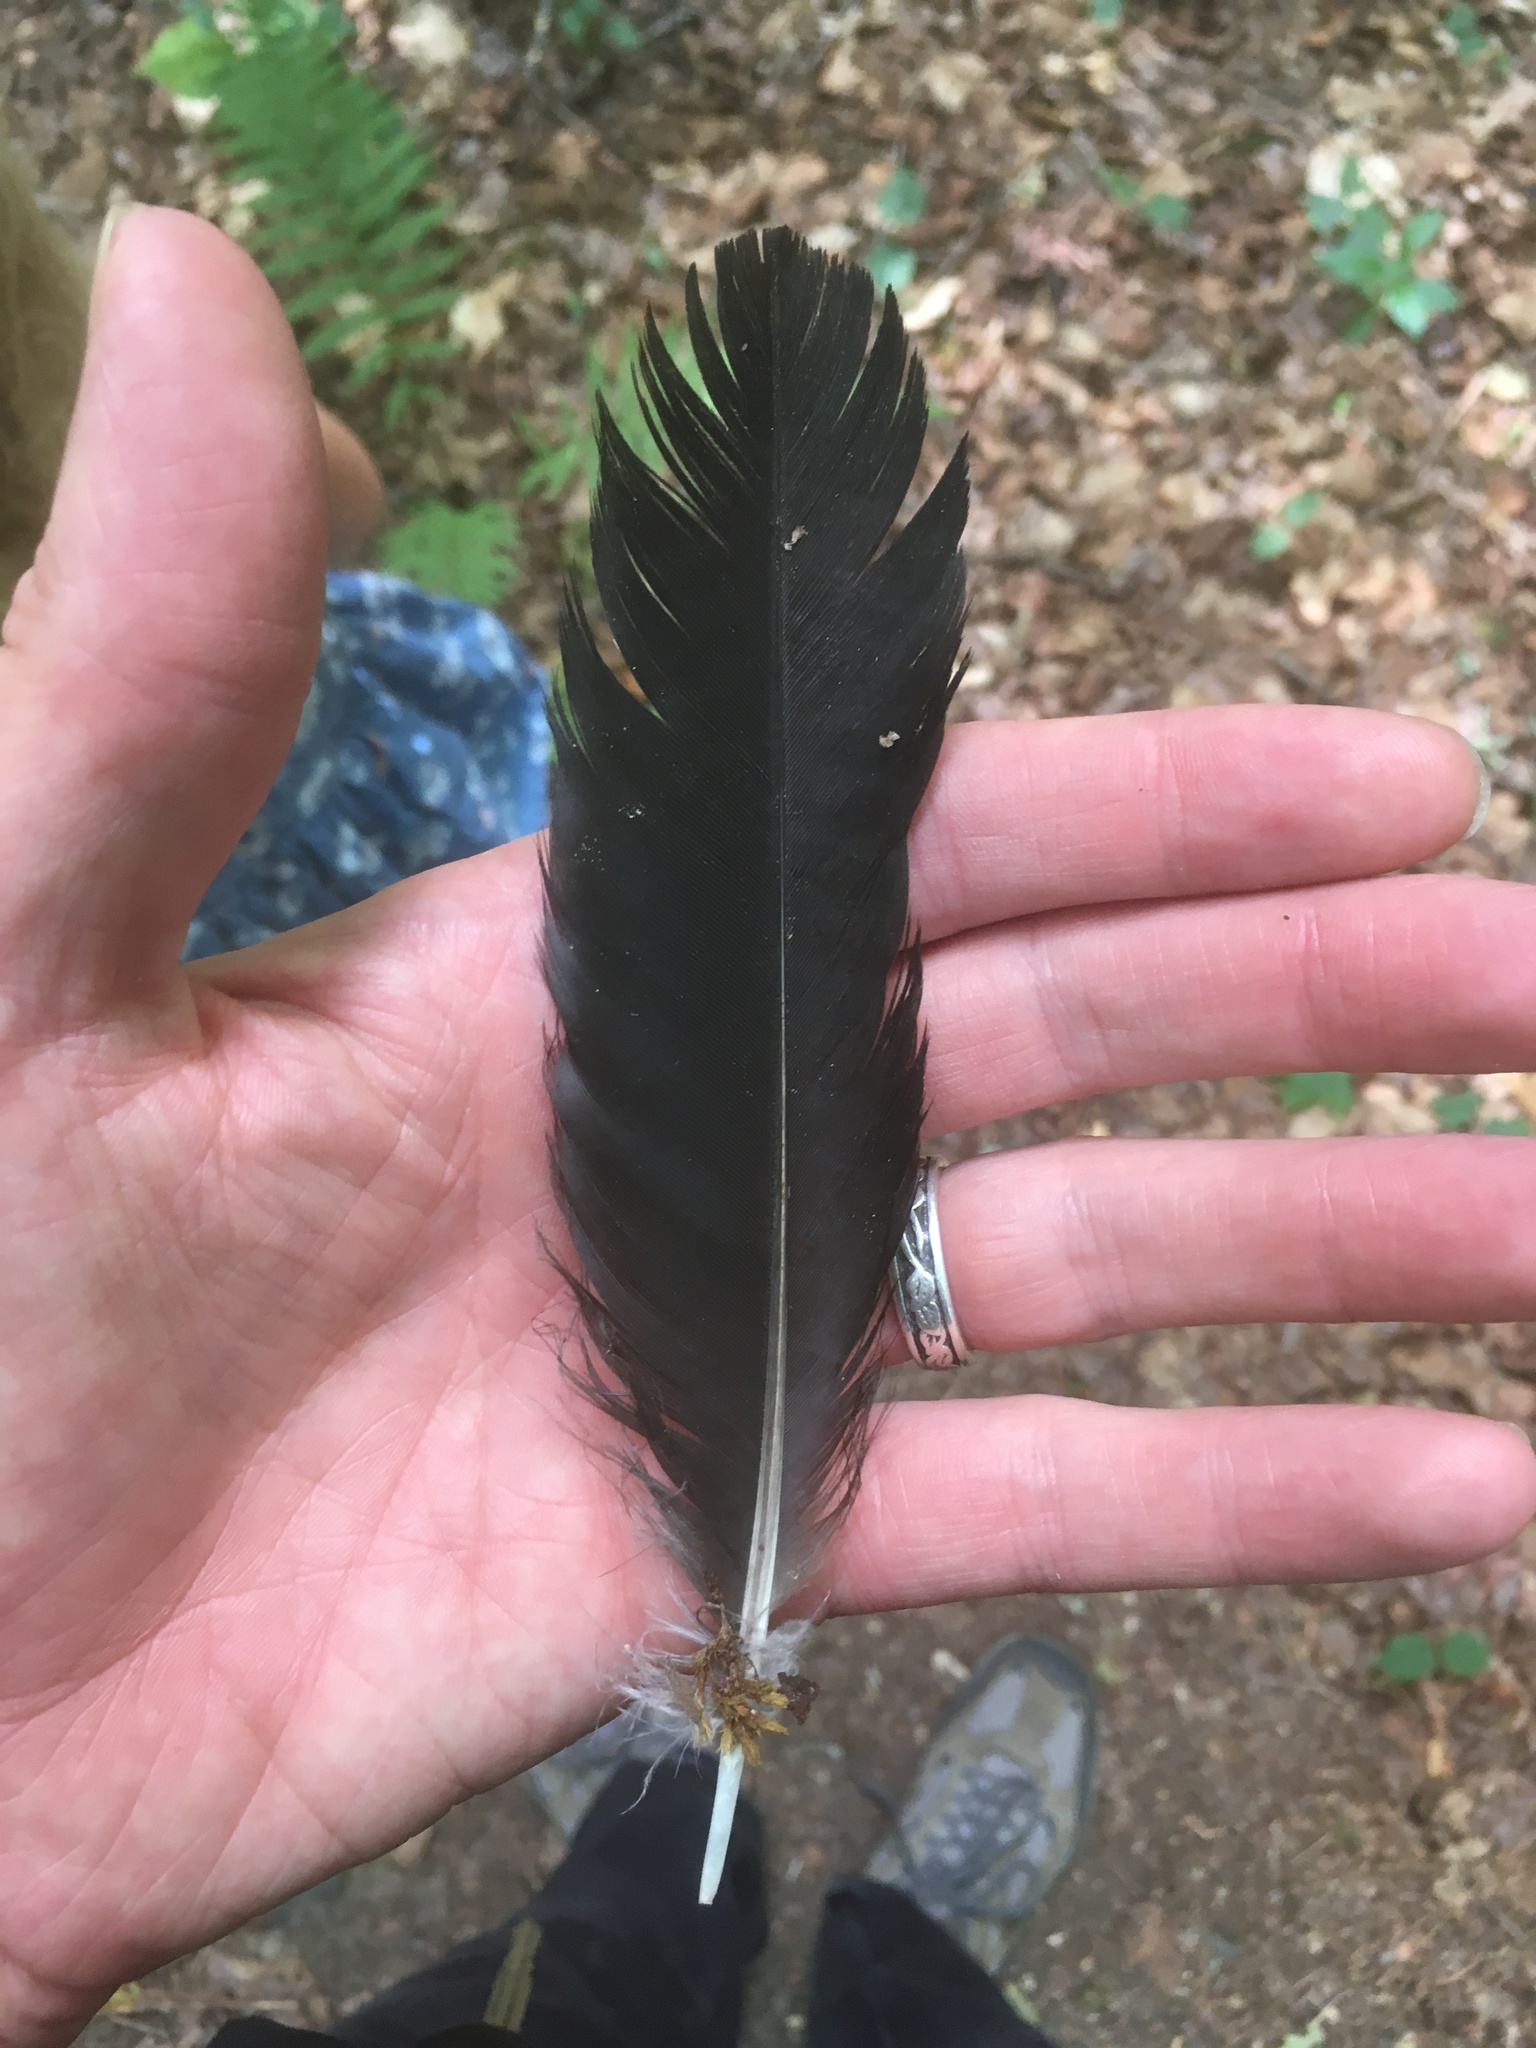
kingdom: Animalia
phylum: Chordata
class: Aves
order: Passeriformes
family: Corvidae
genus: Corvus
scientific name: Corvus
